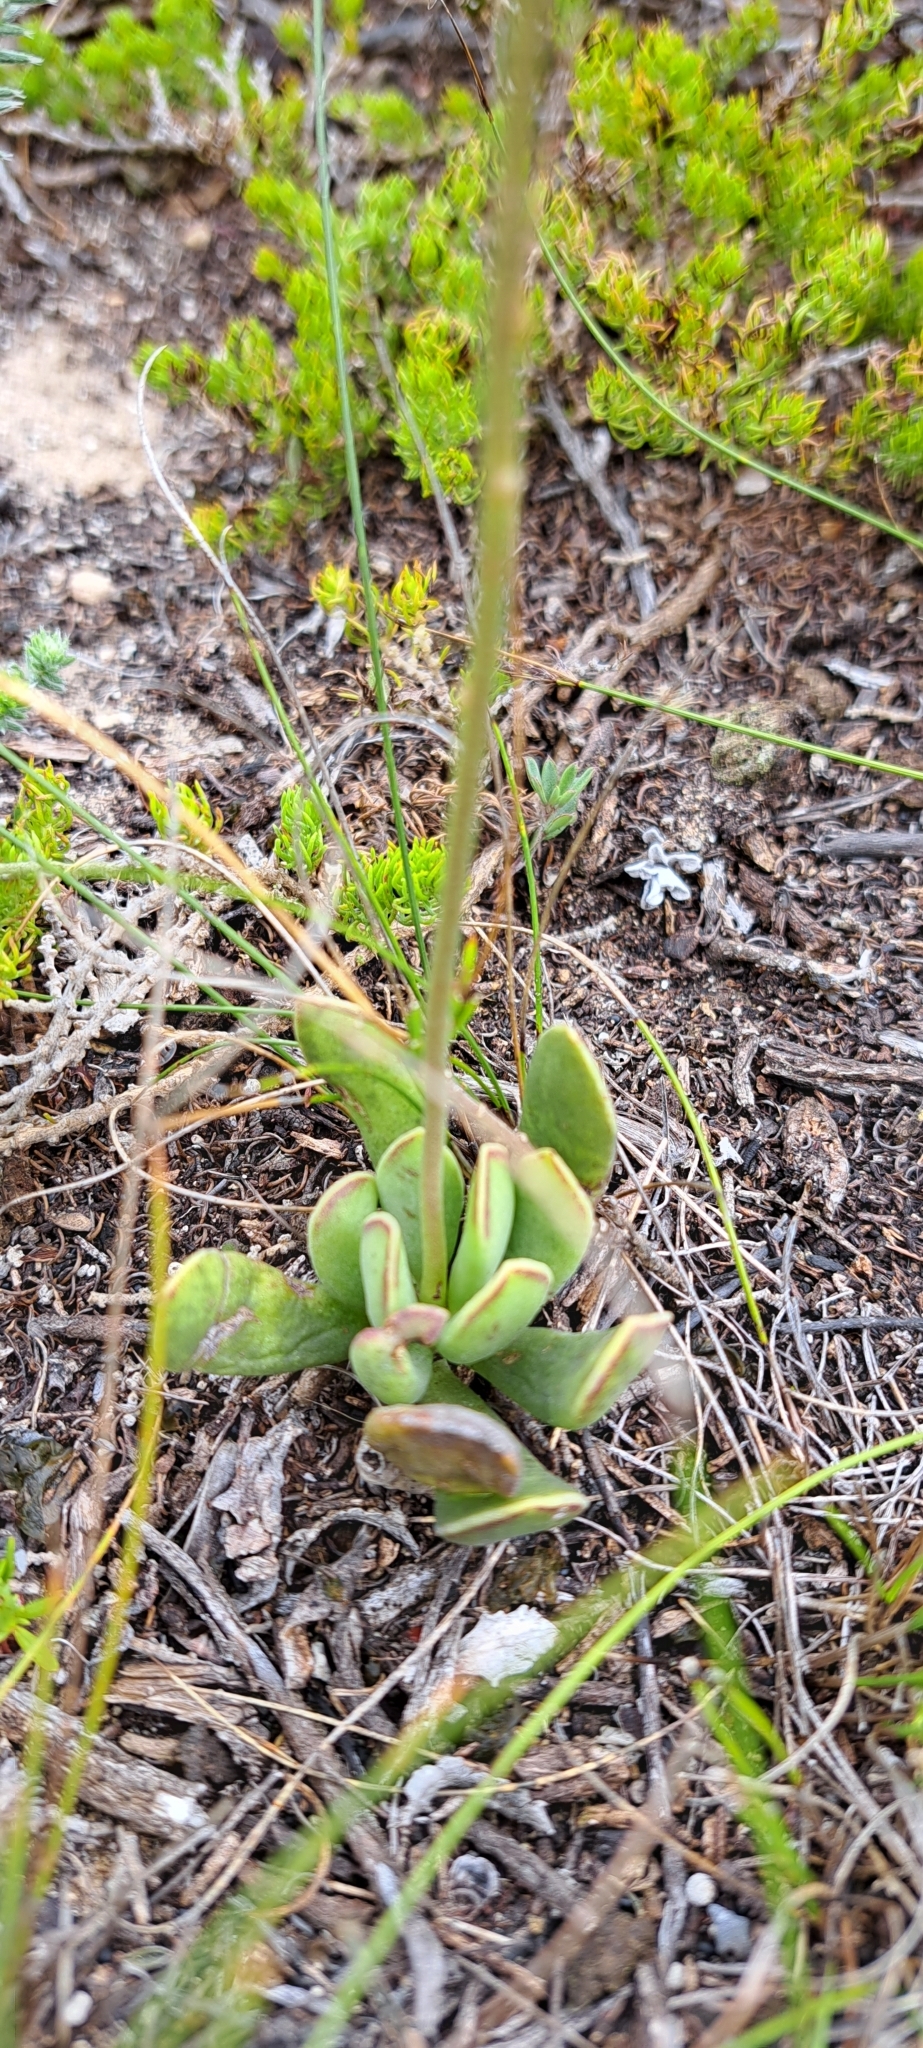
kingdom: Plantae
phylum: Tracheophyta
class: Magnoliopsida
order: Saxifragales
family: Crassulaceae
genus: Adromischus
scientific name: Adromischus caryophyllaceus
